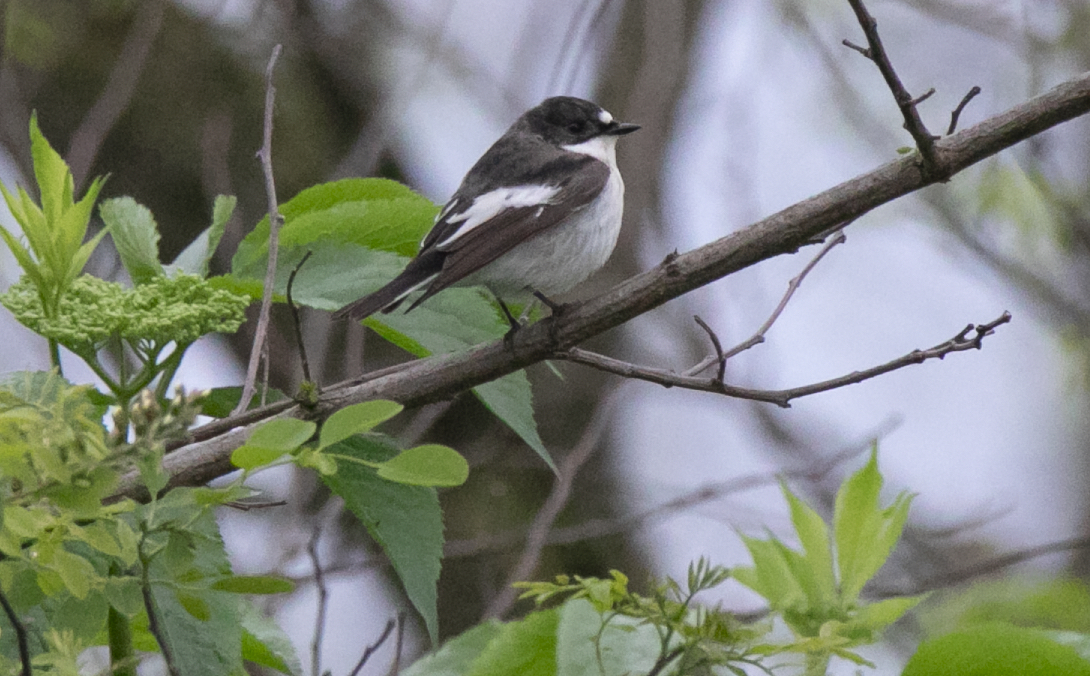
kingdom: Animalia
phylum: Chordata
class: Aves
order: Passeriformes
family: Muscicapidae
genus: Ficedula
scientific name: Ficedula hypoleuca
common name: European pied flycatcher
